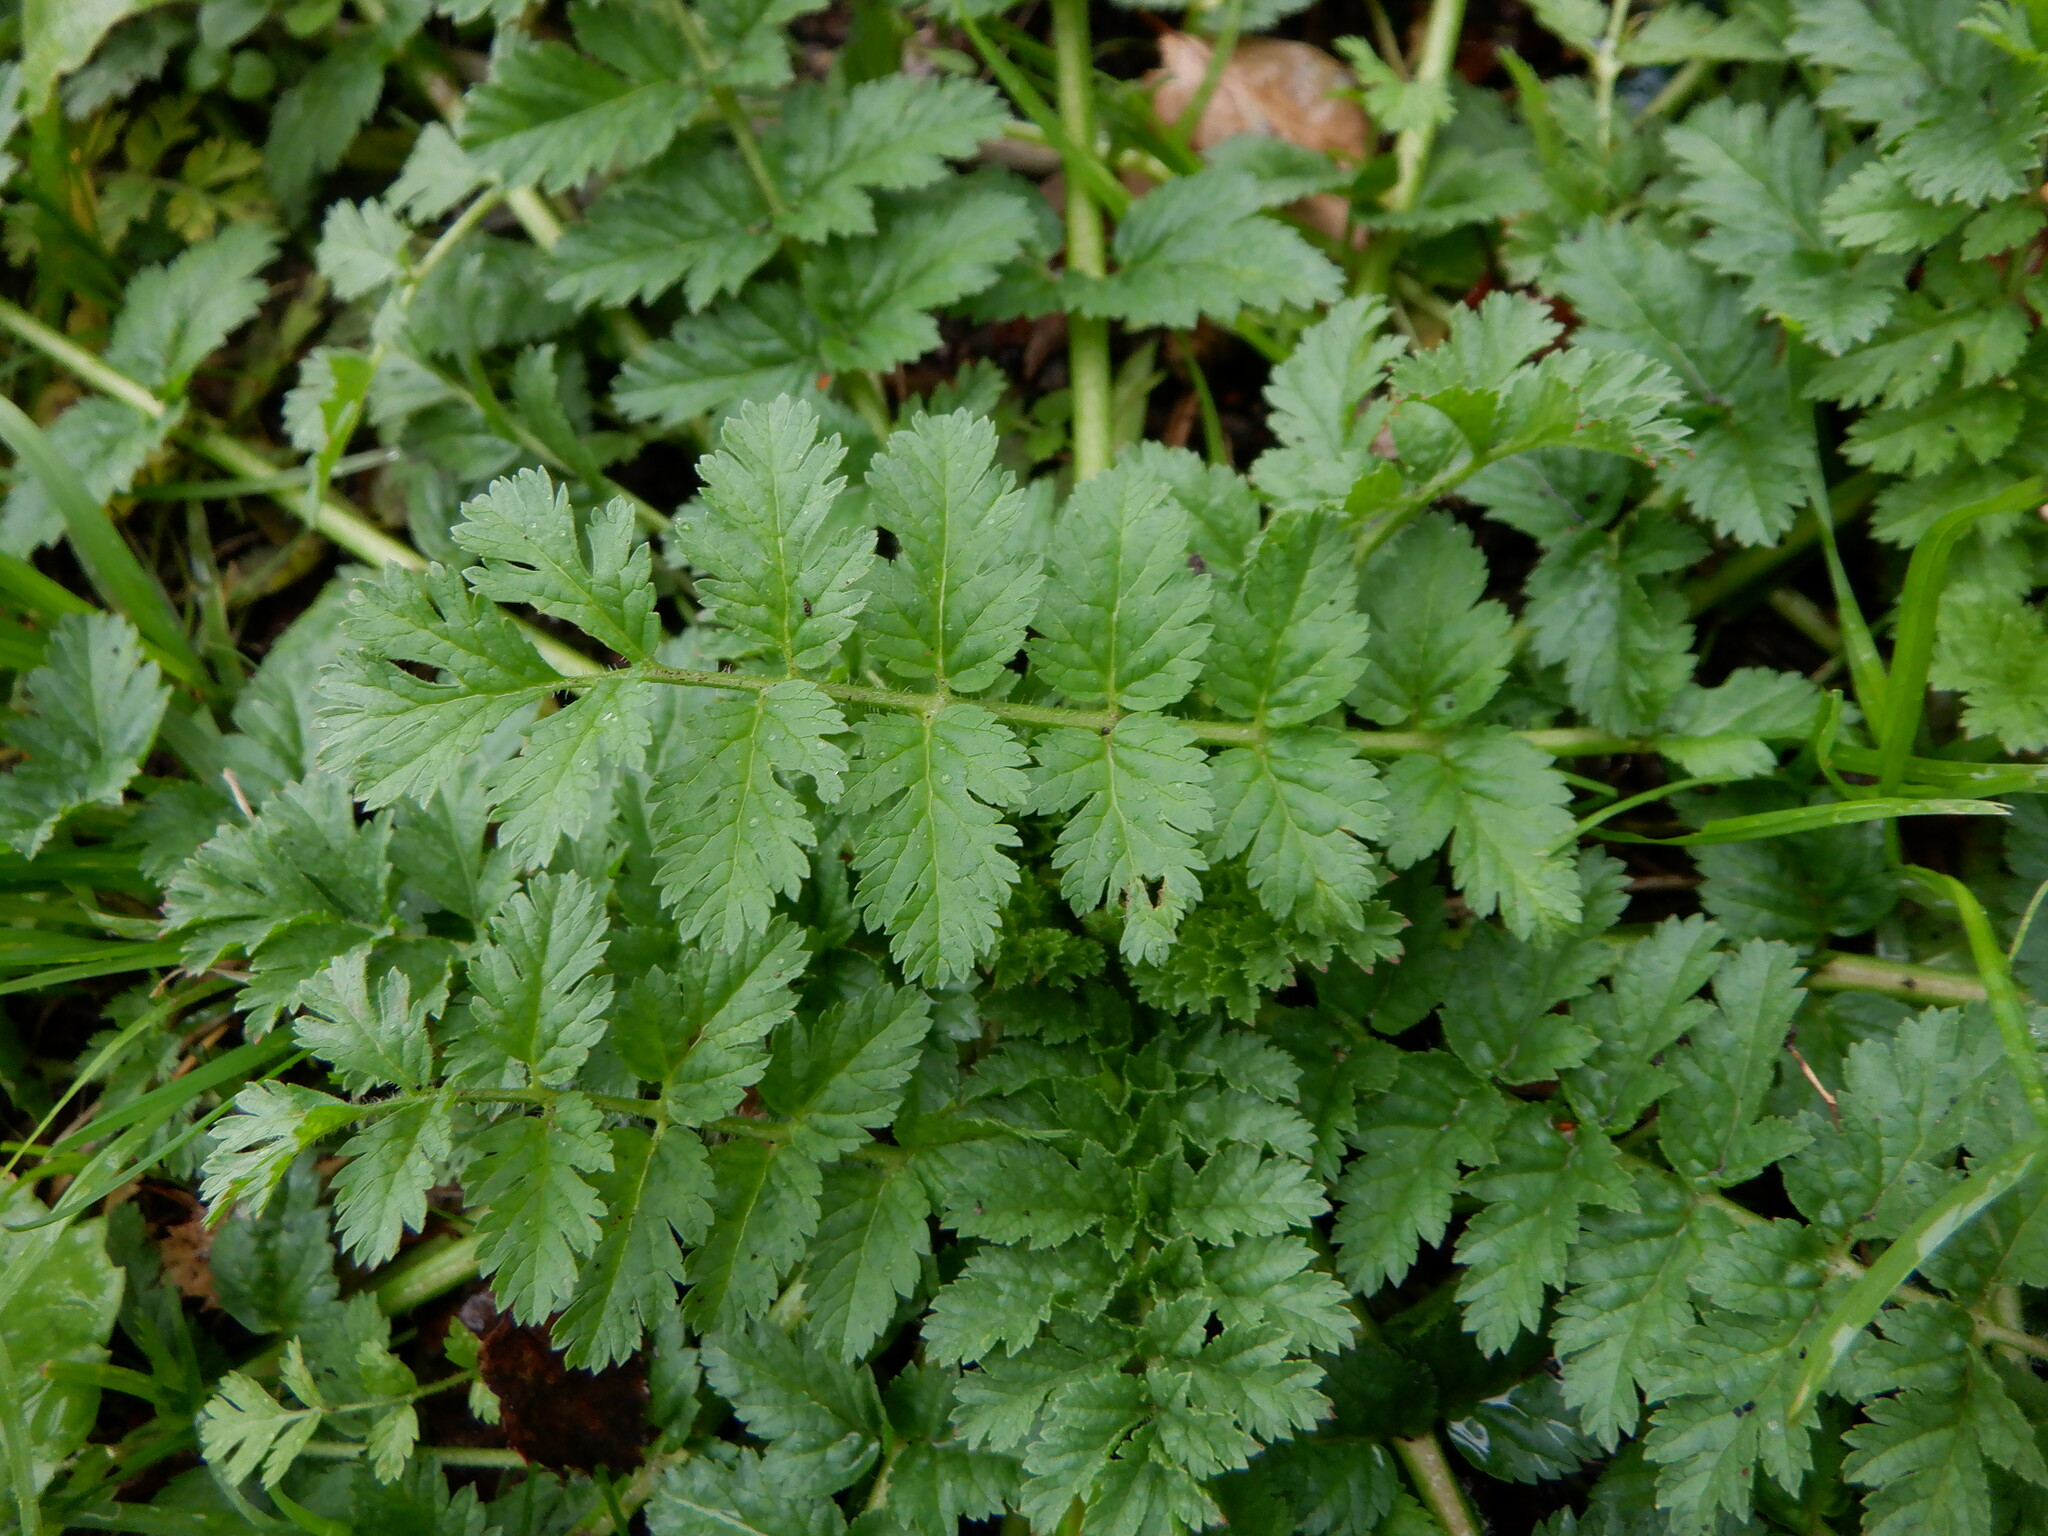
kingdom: Plantae
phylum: Tracheophyta
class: Magnoliopsida
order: Geraniales
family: Geraniaceae
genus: Erodium
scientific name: Erodium moschatum
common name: Musk stork's-bill
